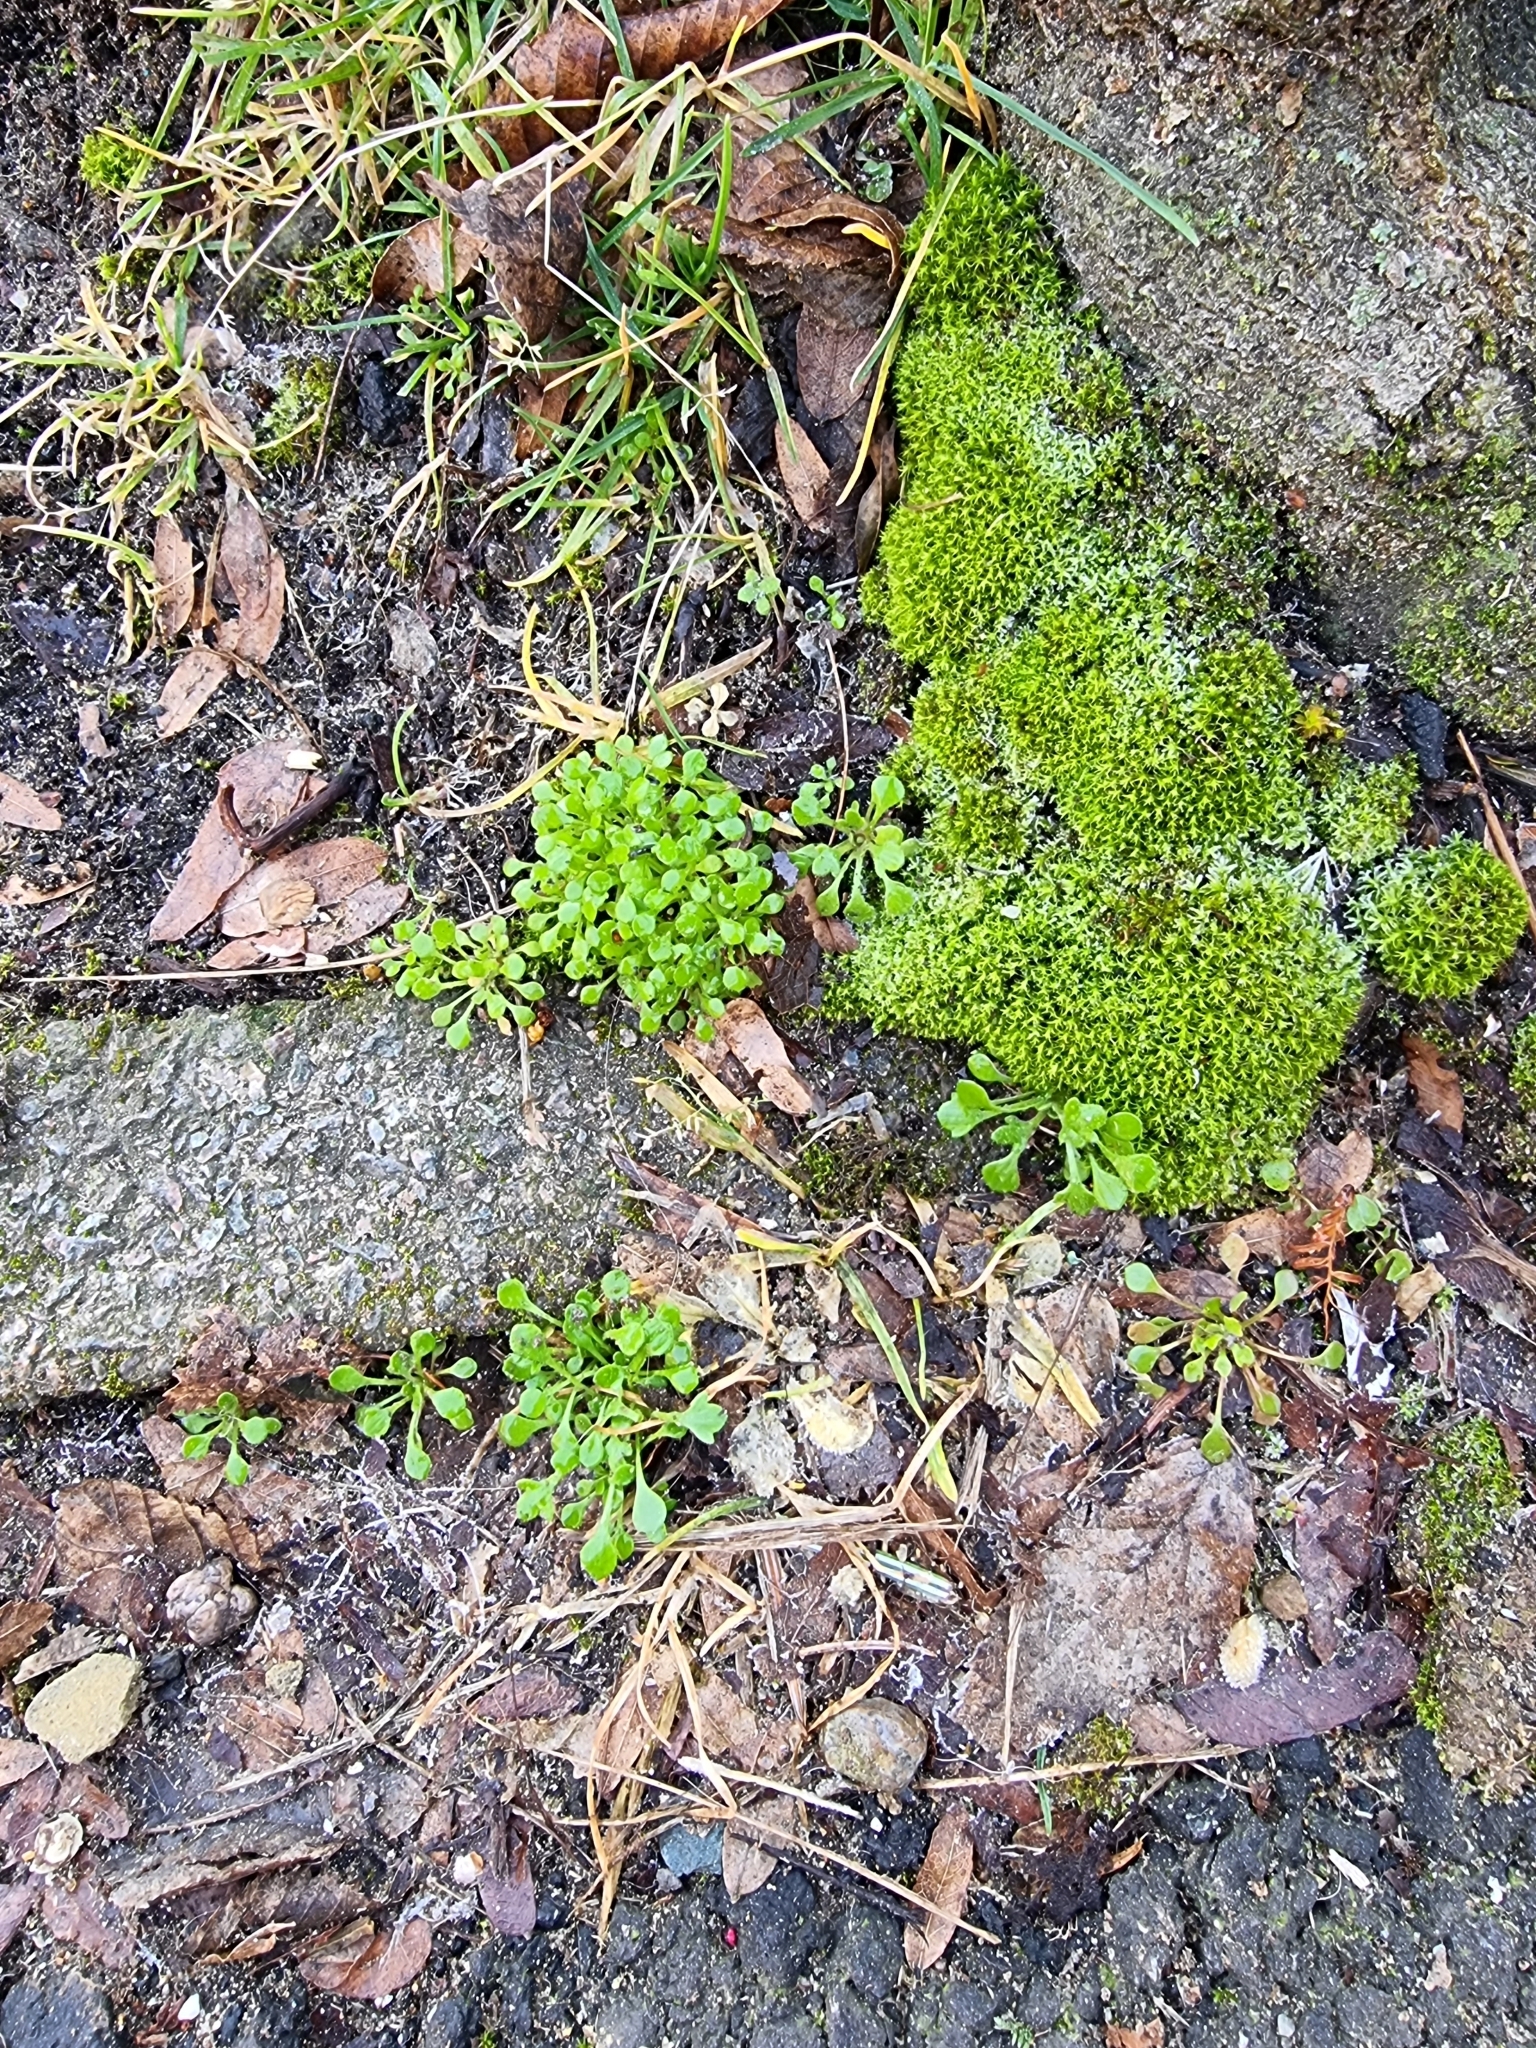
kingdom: Plantae
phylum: Tracheophyta
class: Magnoliopsida
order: Saxifragales
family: Saxifragaceae
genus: Saxifraga
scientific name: Saxifraga tridactylites
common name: Rue-leaved saxifrage
